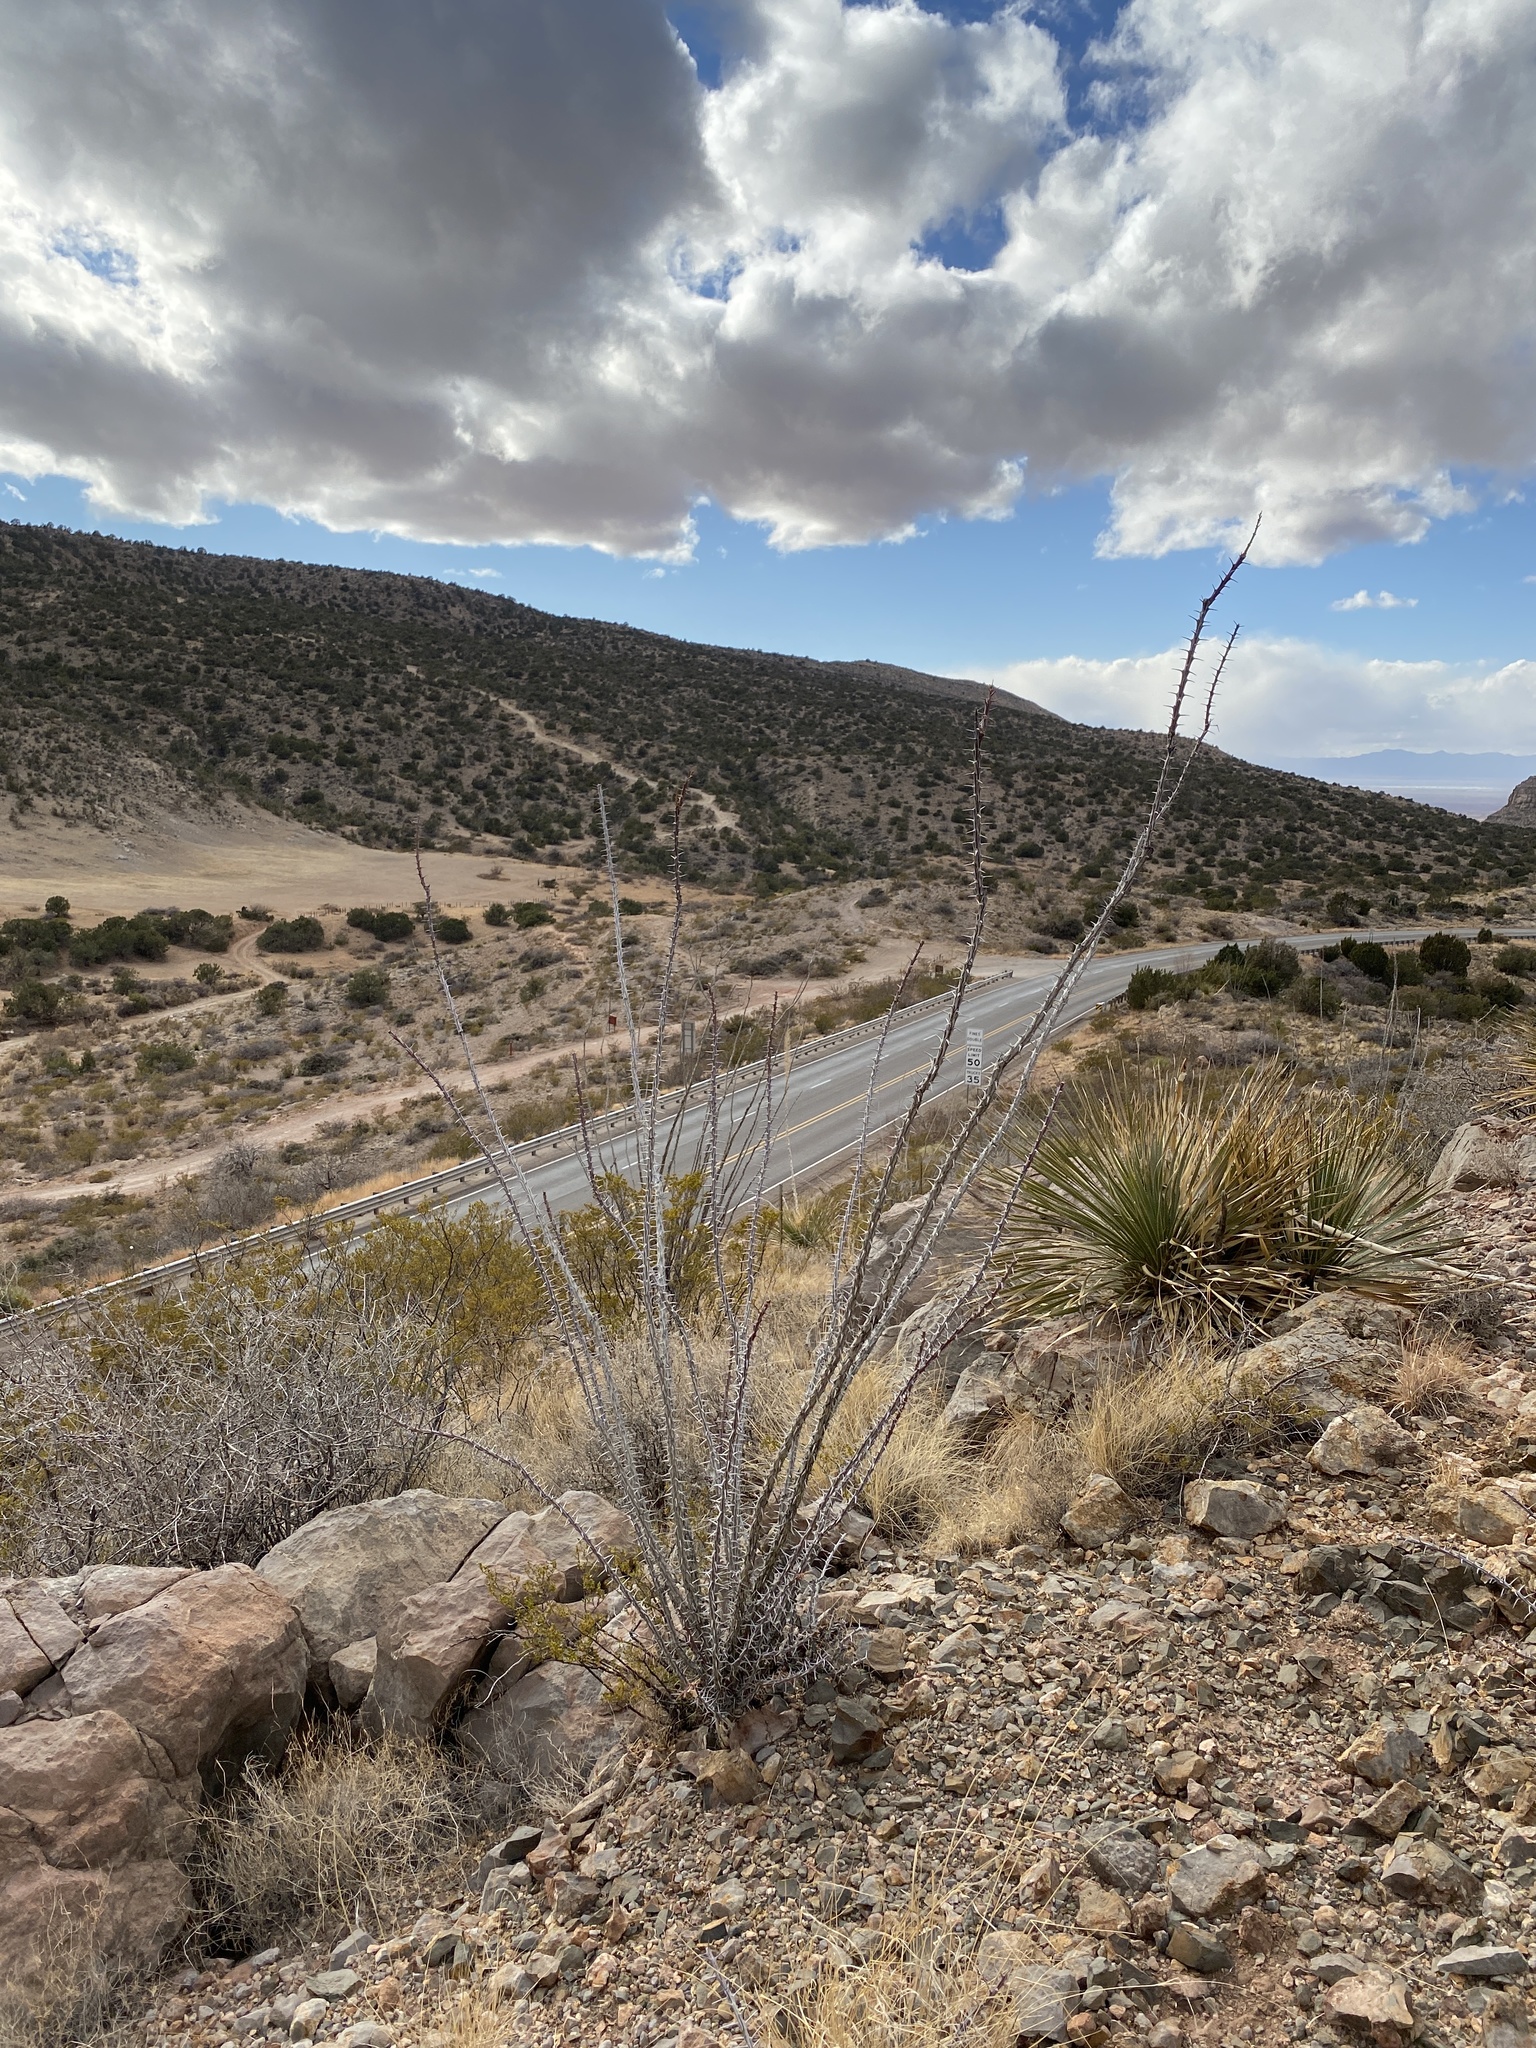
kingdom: Plantae
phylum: Tracheophyta
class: Magnoliopsida
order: Ericales
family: Fouquieriaceae
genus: Fouquieria
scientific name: Fouquieria splendens
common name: Vine-cactus
